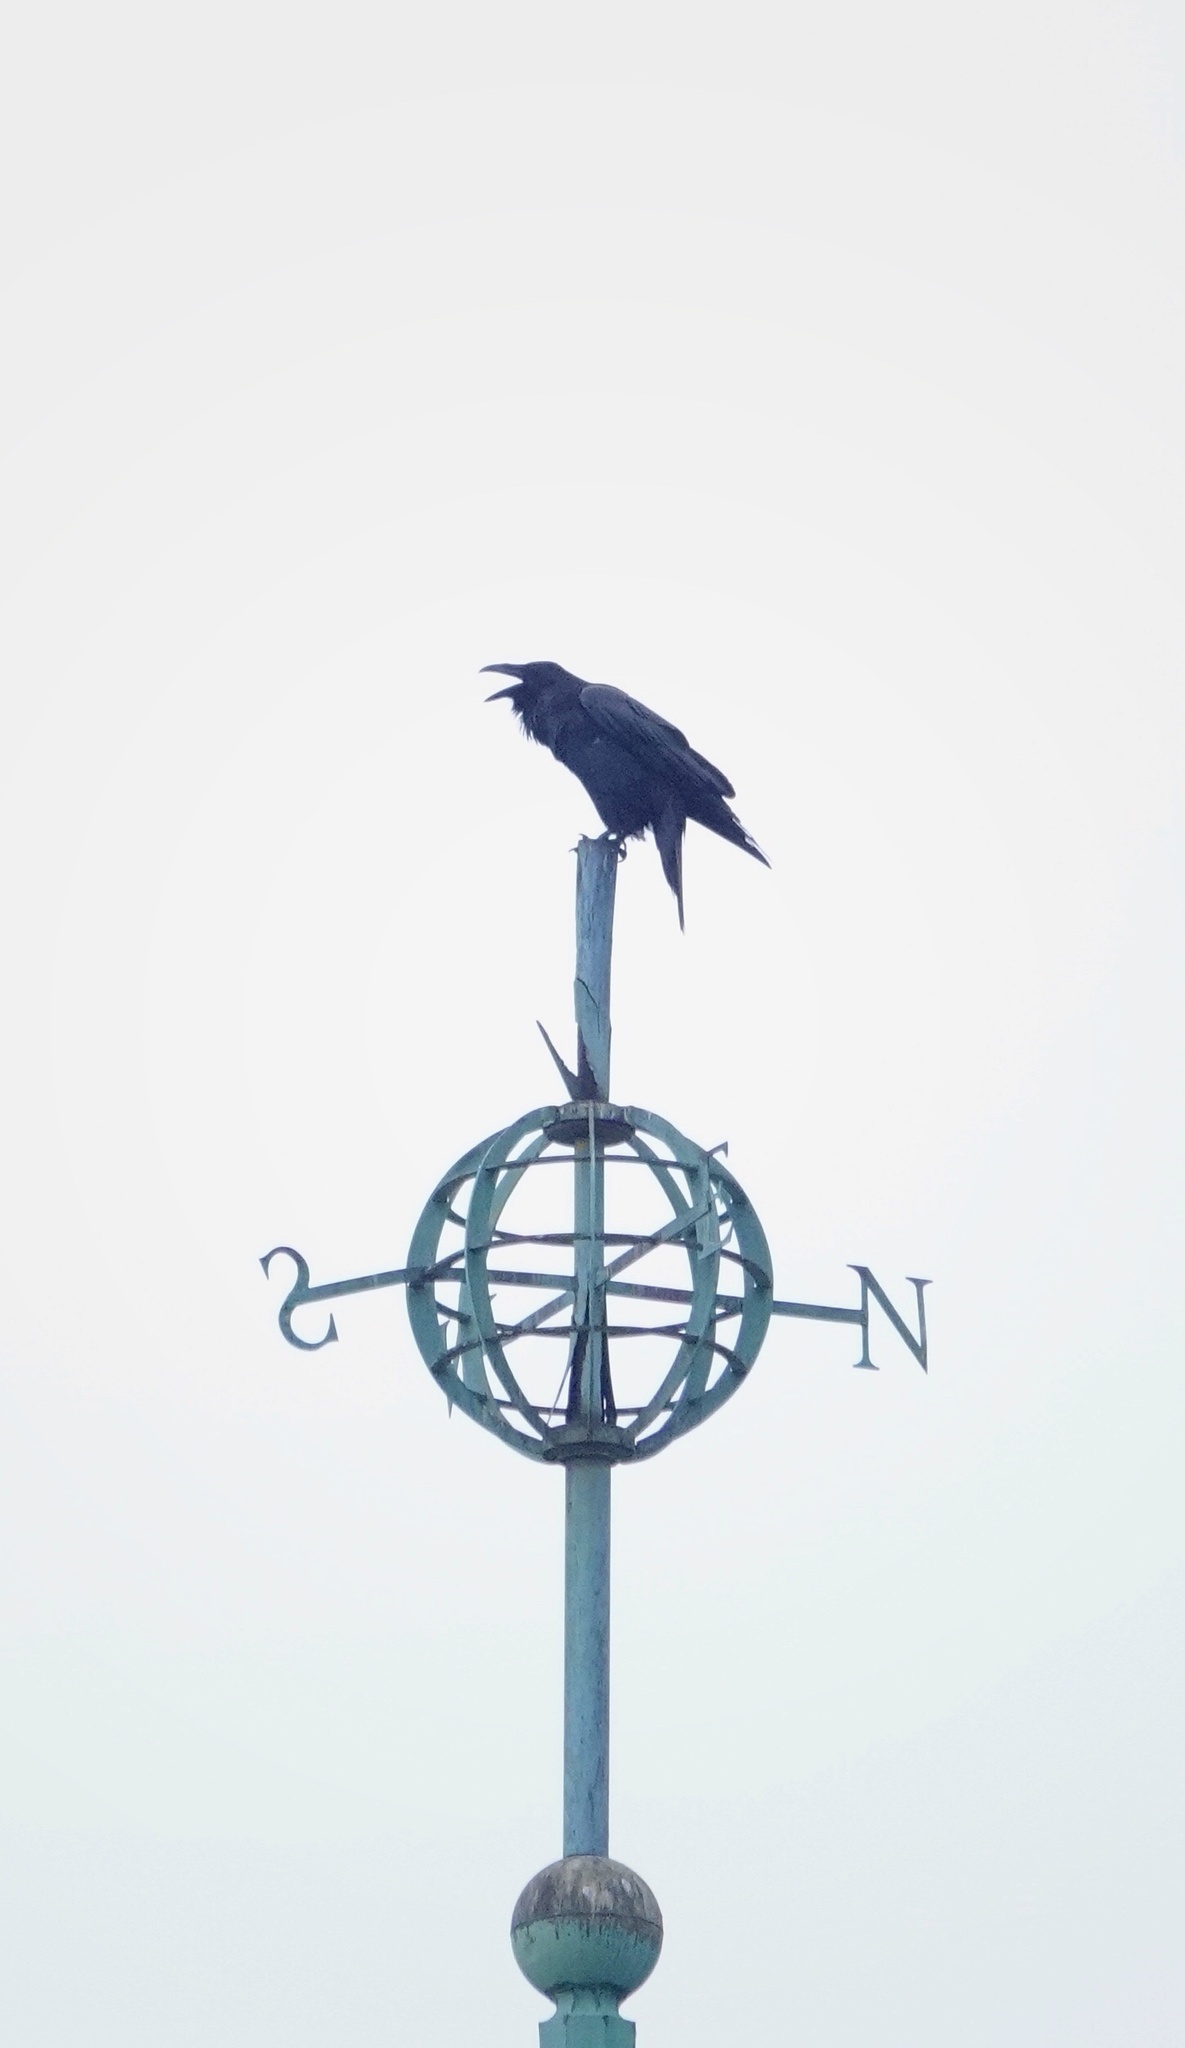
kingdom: Animalia
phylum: Chordata
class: Aves
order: Passeriformes
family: Corvidae
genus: Corvus
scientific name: Corvus corax
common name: Common raven
